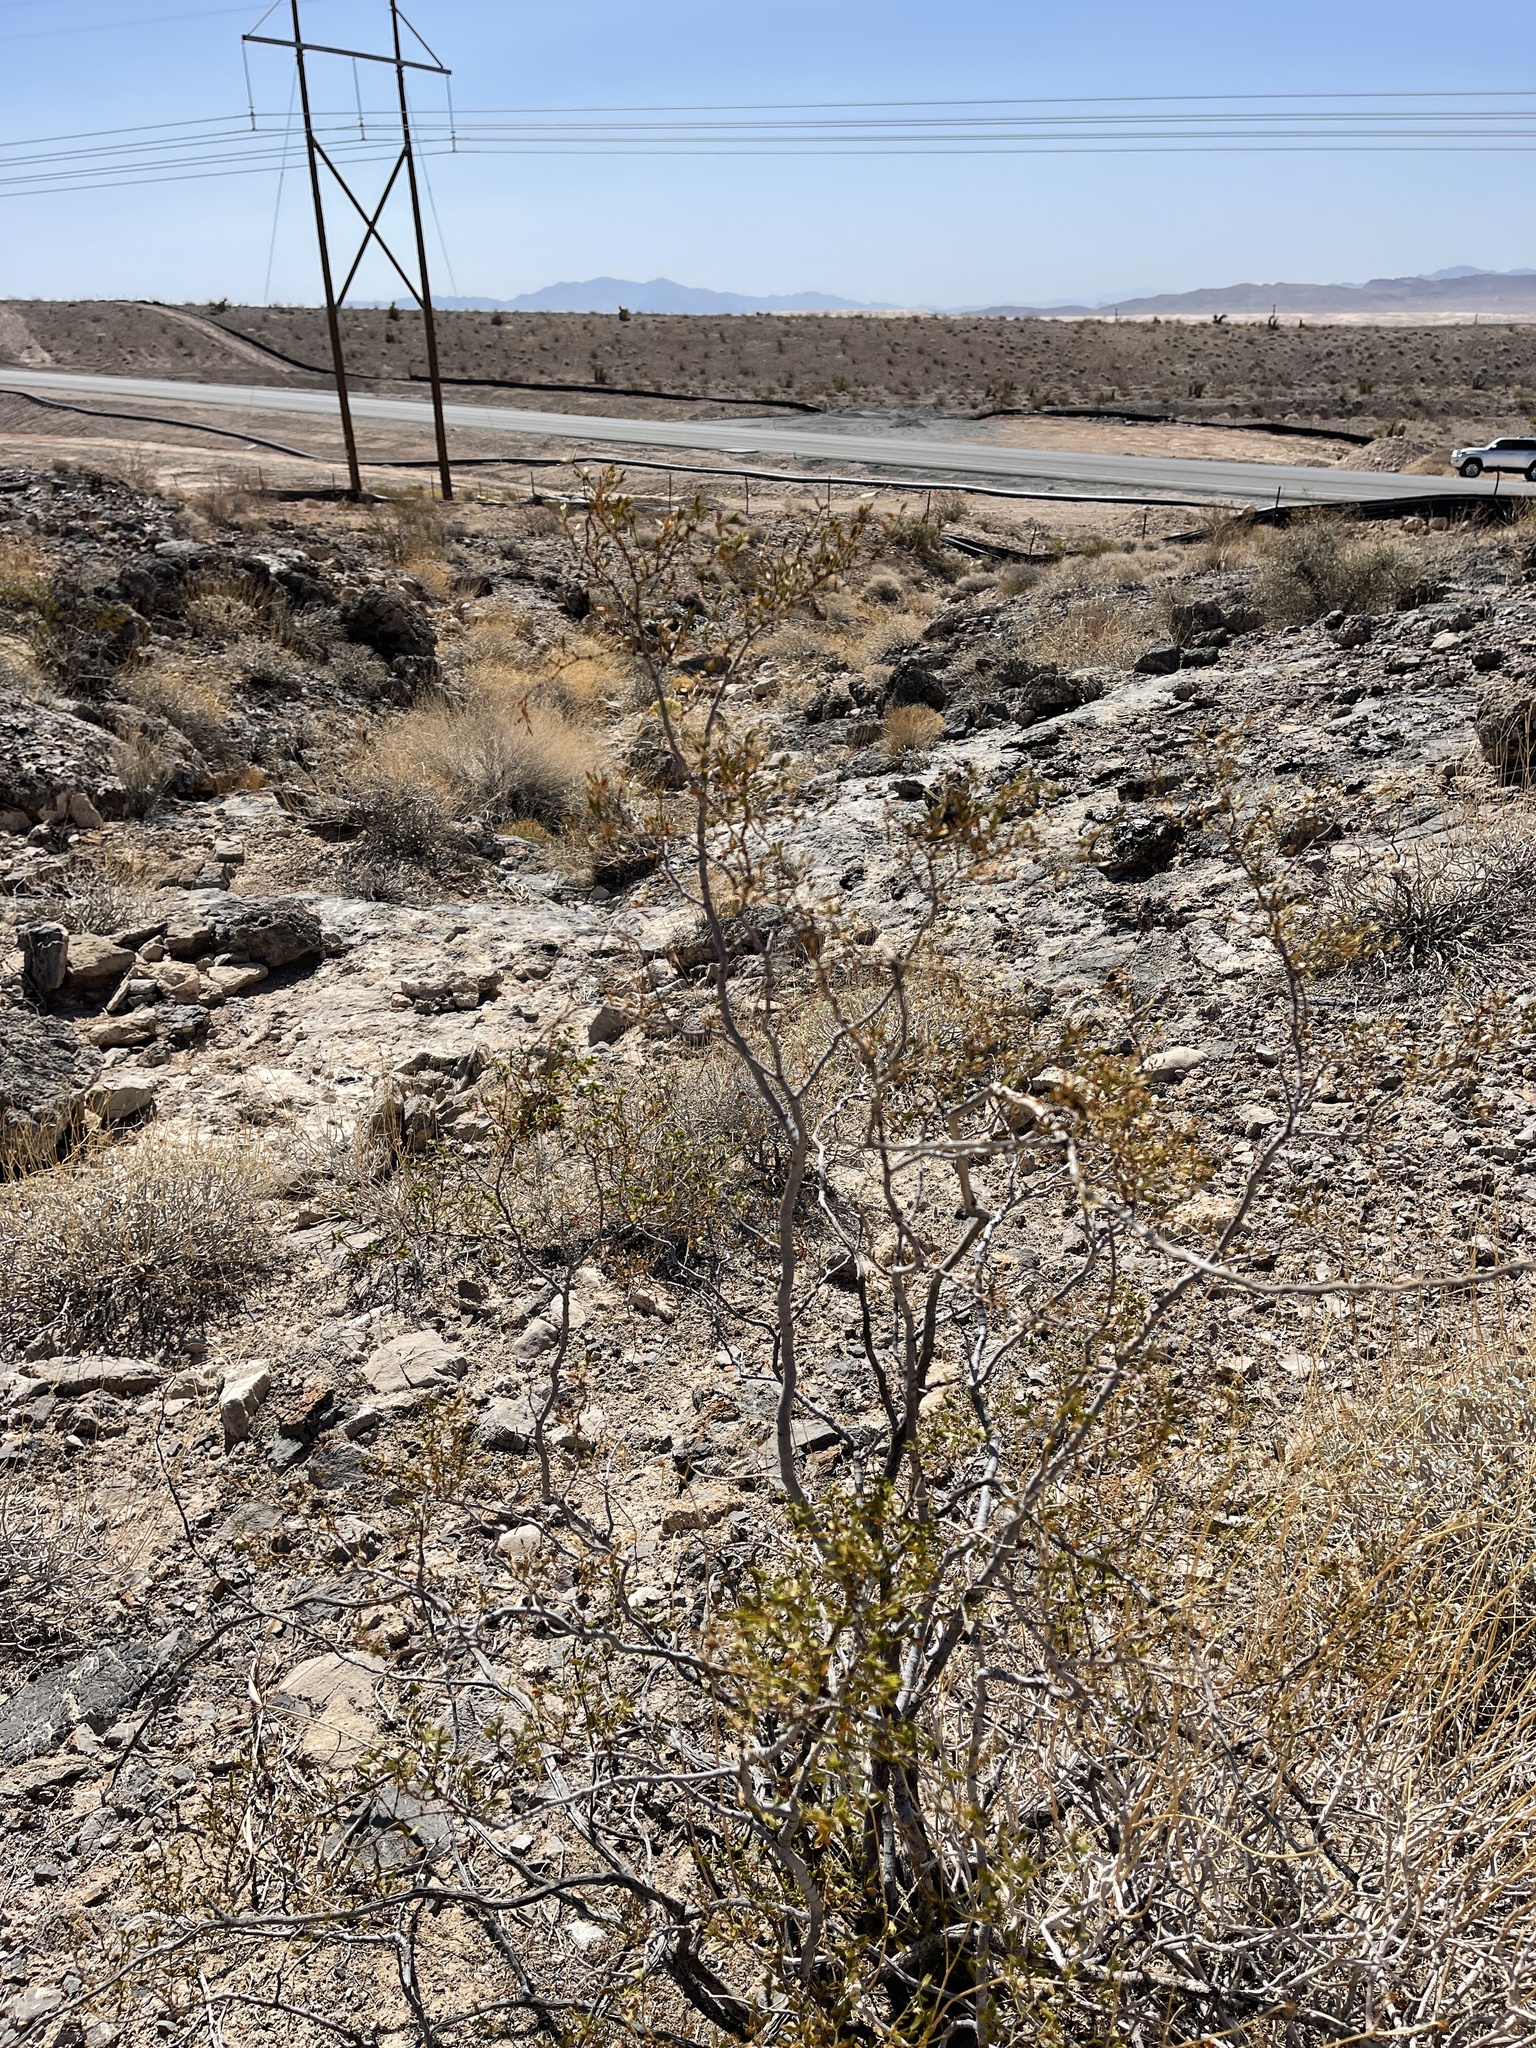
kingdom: Plantae
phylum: Tracheophyta
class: Magnoliopsida
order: Zygophyllales
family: Zygophyllaceae
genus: Larrea
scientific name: Larrea tridentata
